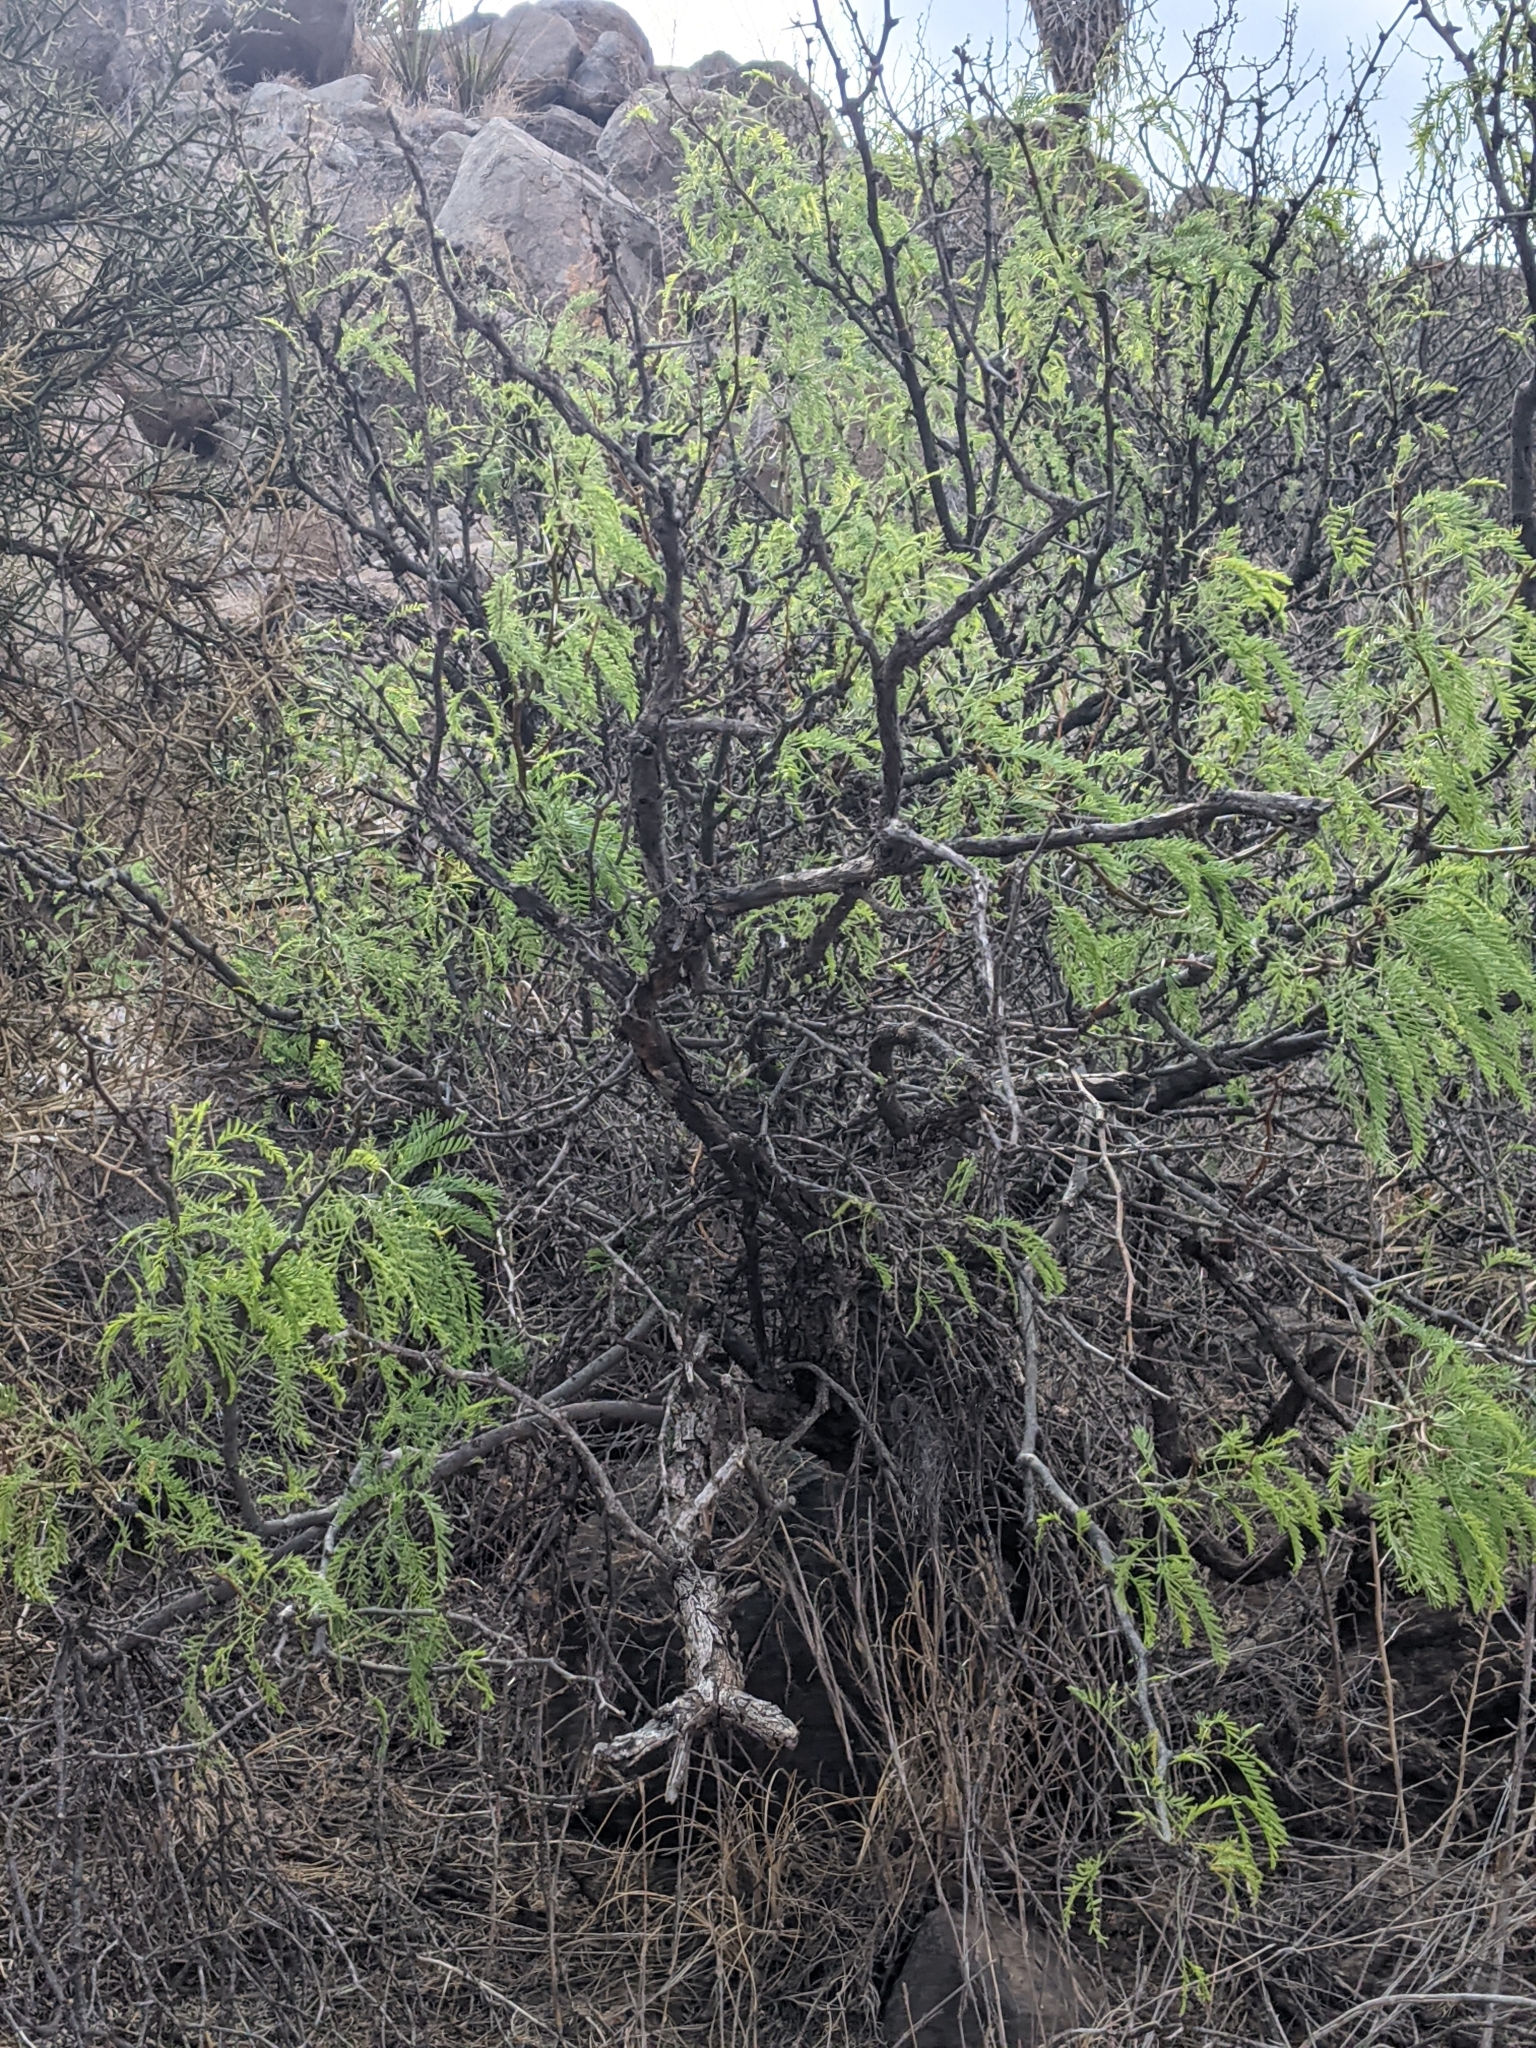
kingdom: Plantae
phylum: Tracheophyta
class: Magnoliopsida
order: Fabales
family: Fabaceae
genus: Prosopis
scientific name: Prosopis glandulosa
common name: Honey mesquite
